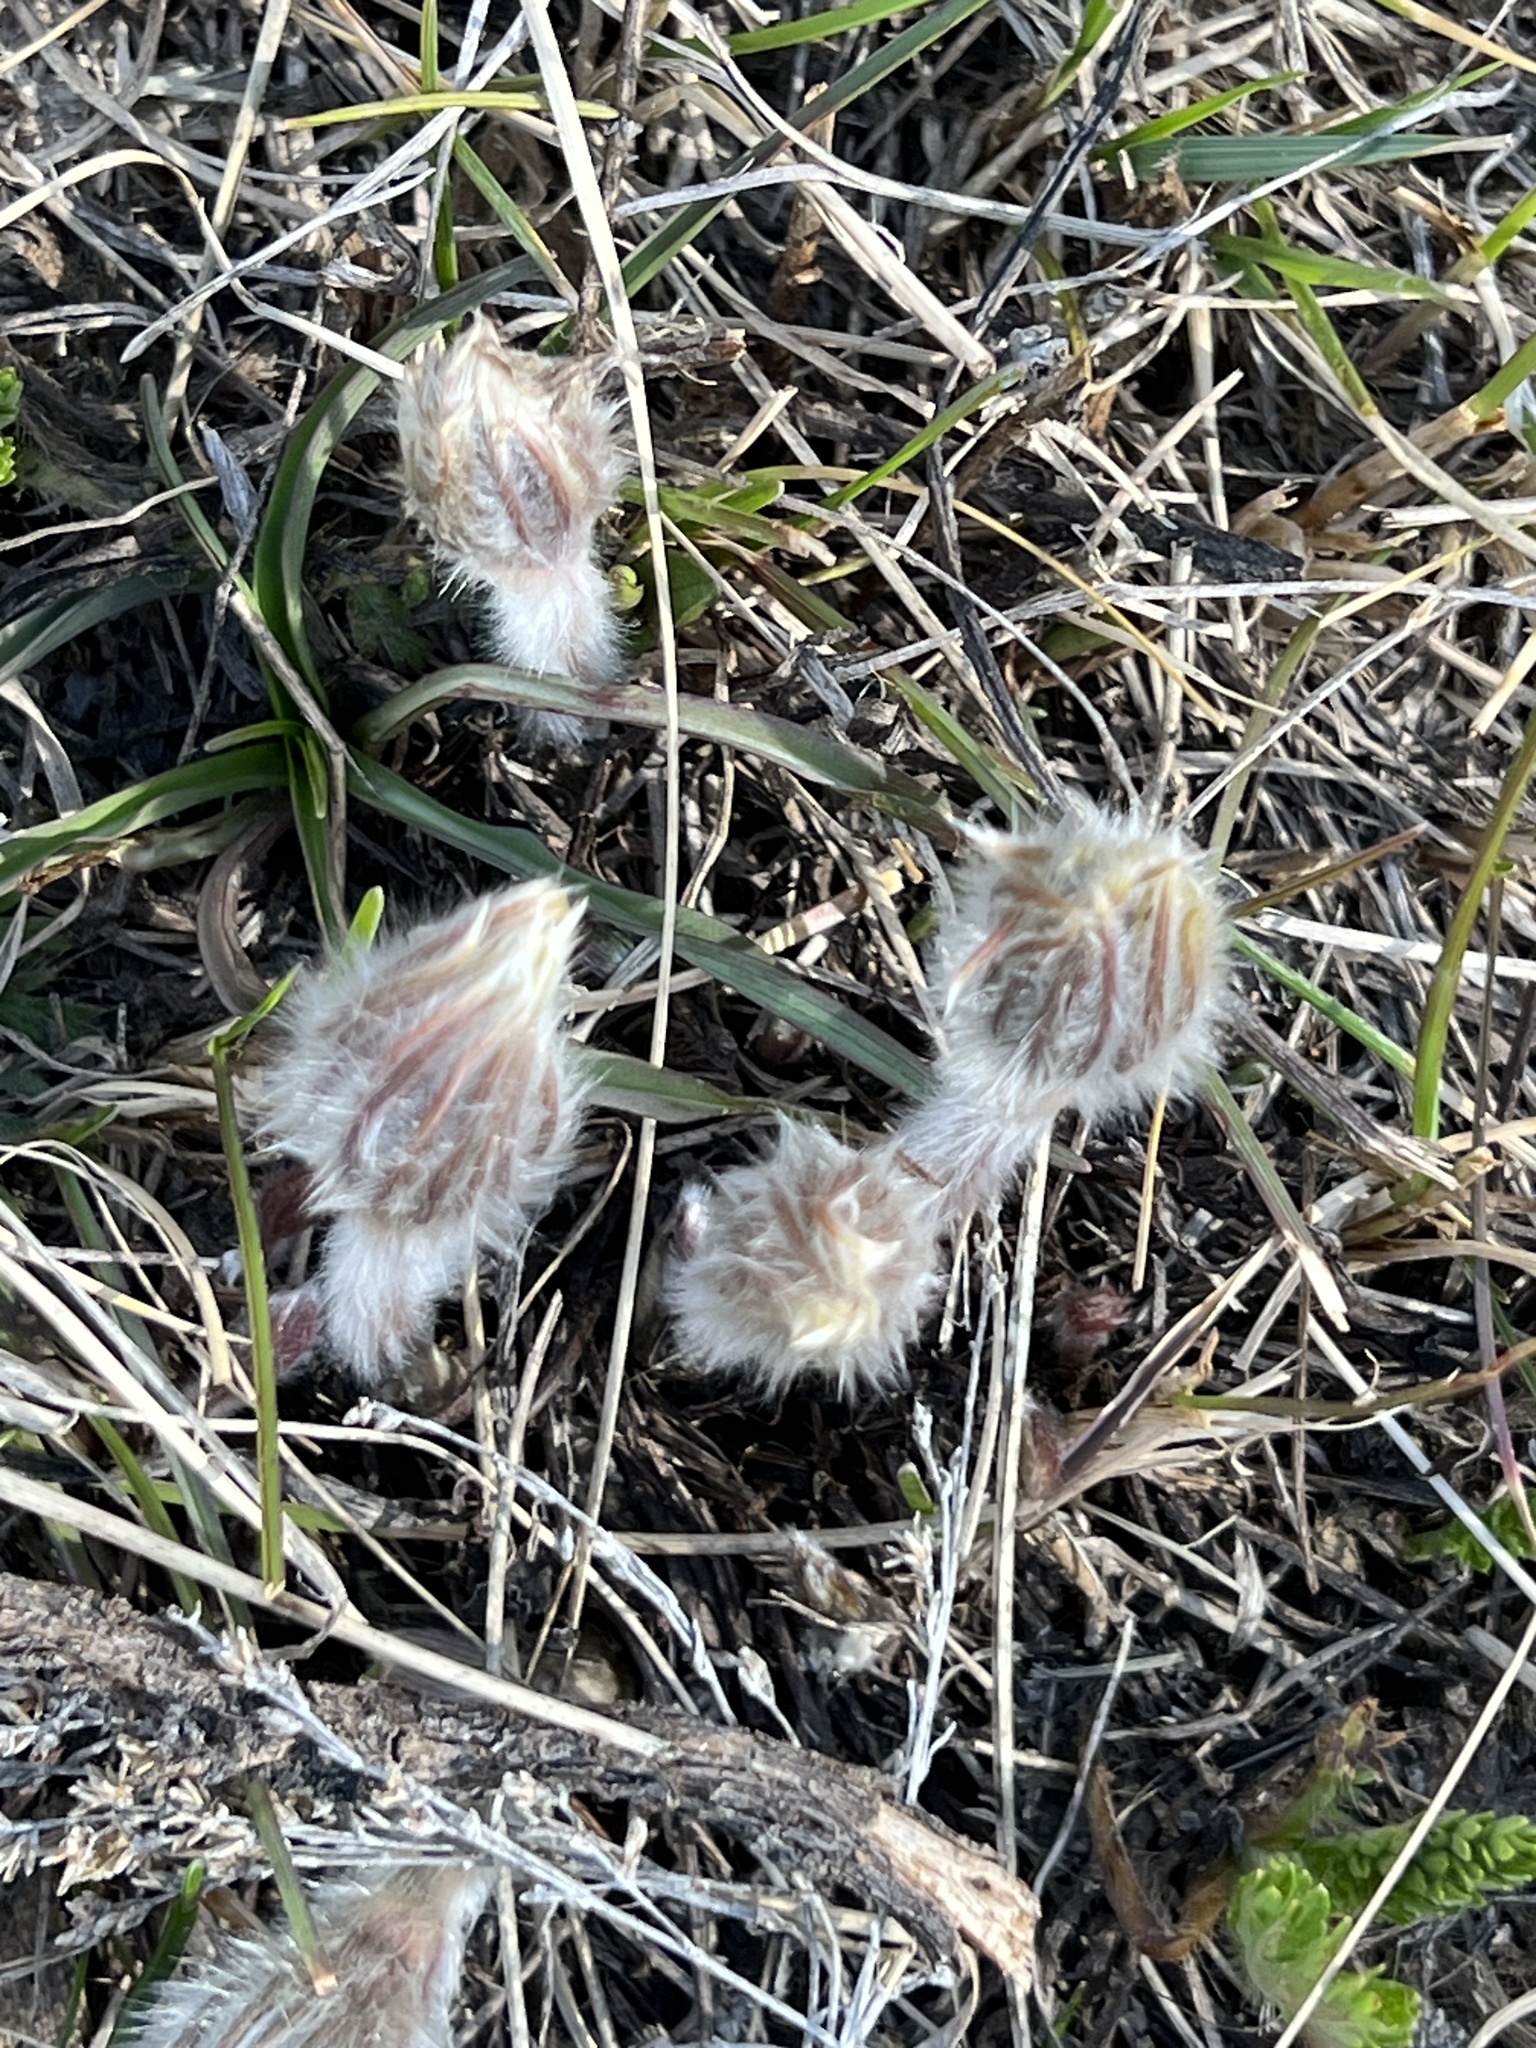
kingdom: Plantae
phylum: Tracheophyta
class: Magnoliopsida
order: Ranunculales
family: Ranunculaceae
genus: Pulsatilla
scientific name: Pulsatilla nuttalliana
